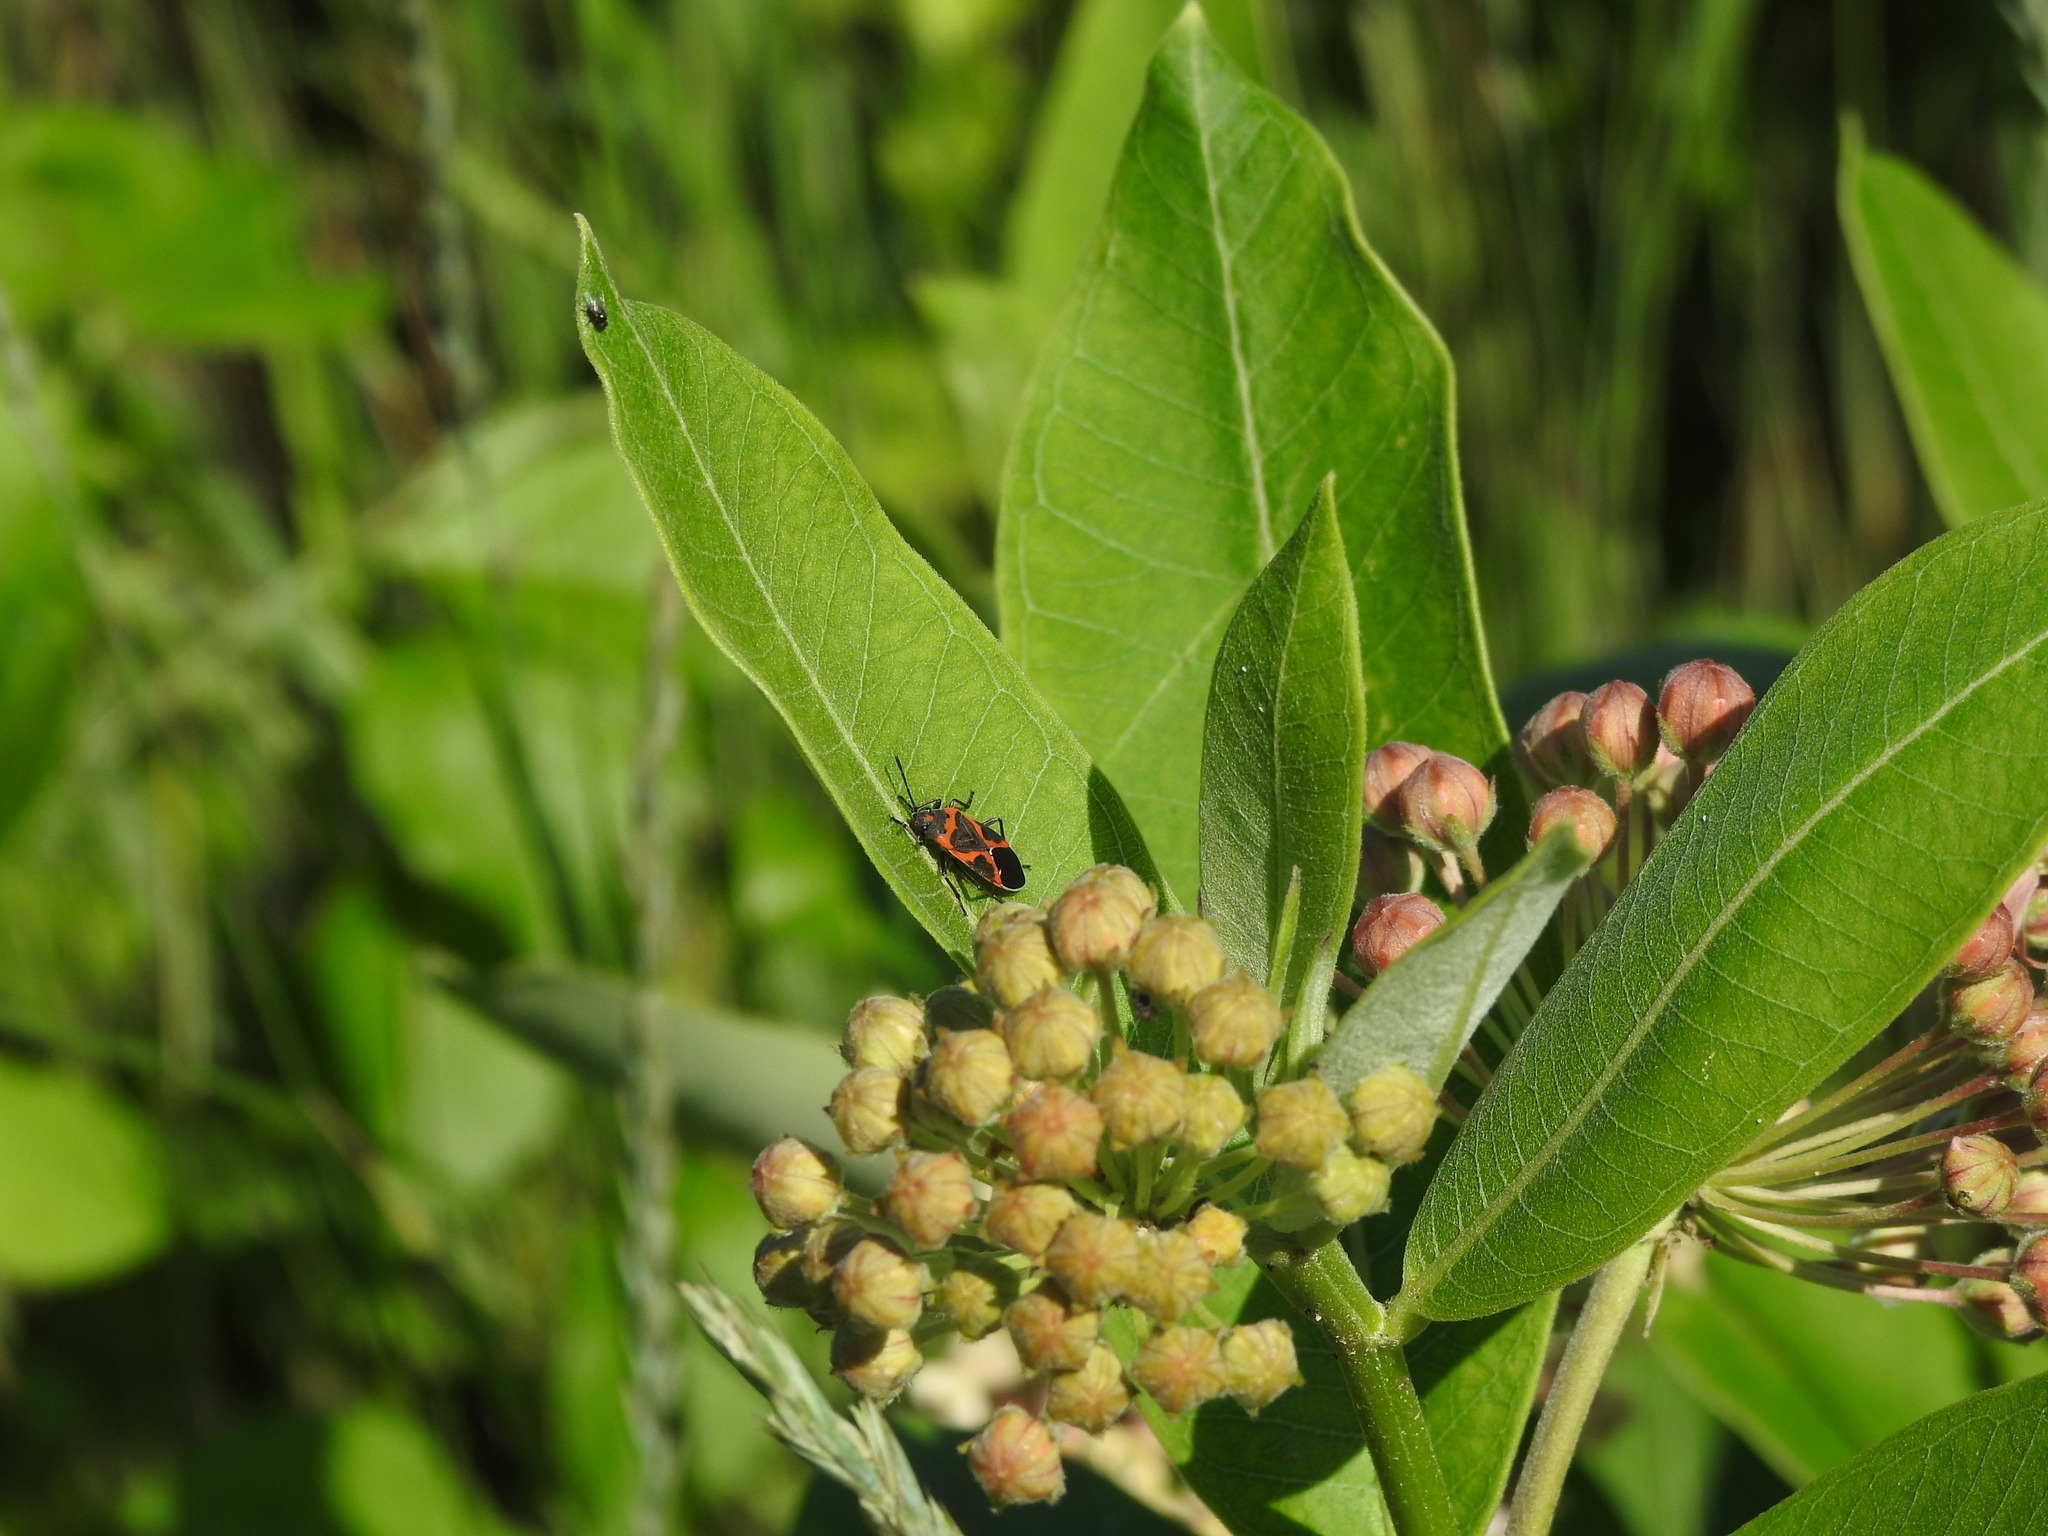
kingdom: Animalia
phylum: Arthropoda
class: Insecta
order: Hemiptera
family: Lygaeidae
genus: Lygaeus
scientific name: Lygaeus kalmii
